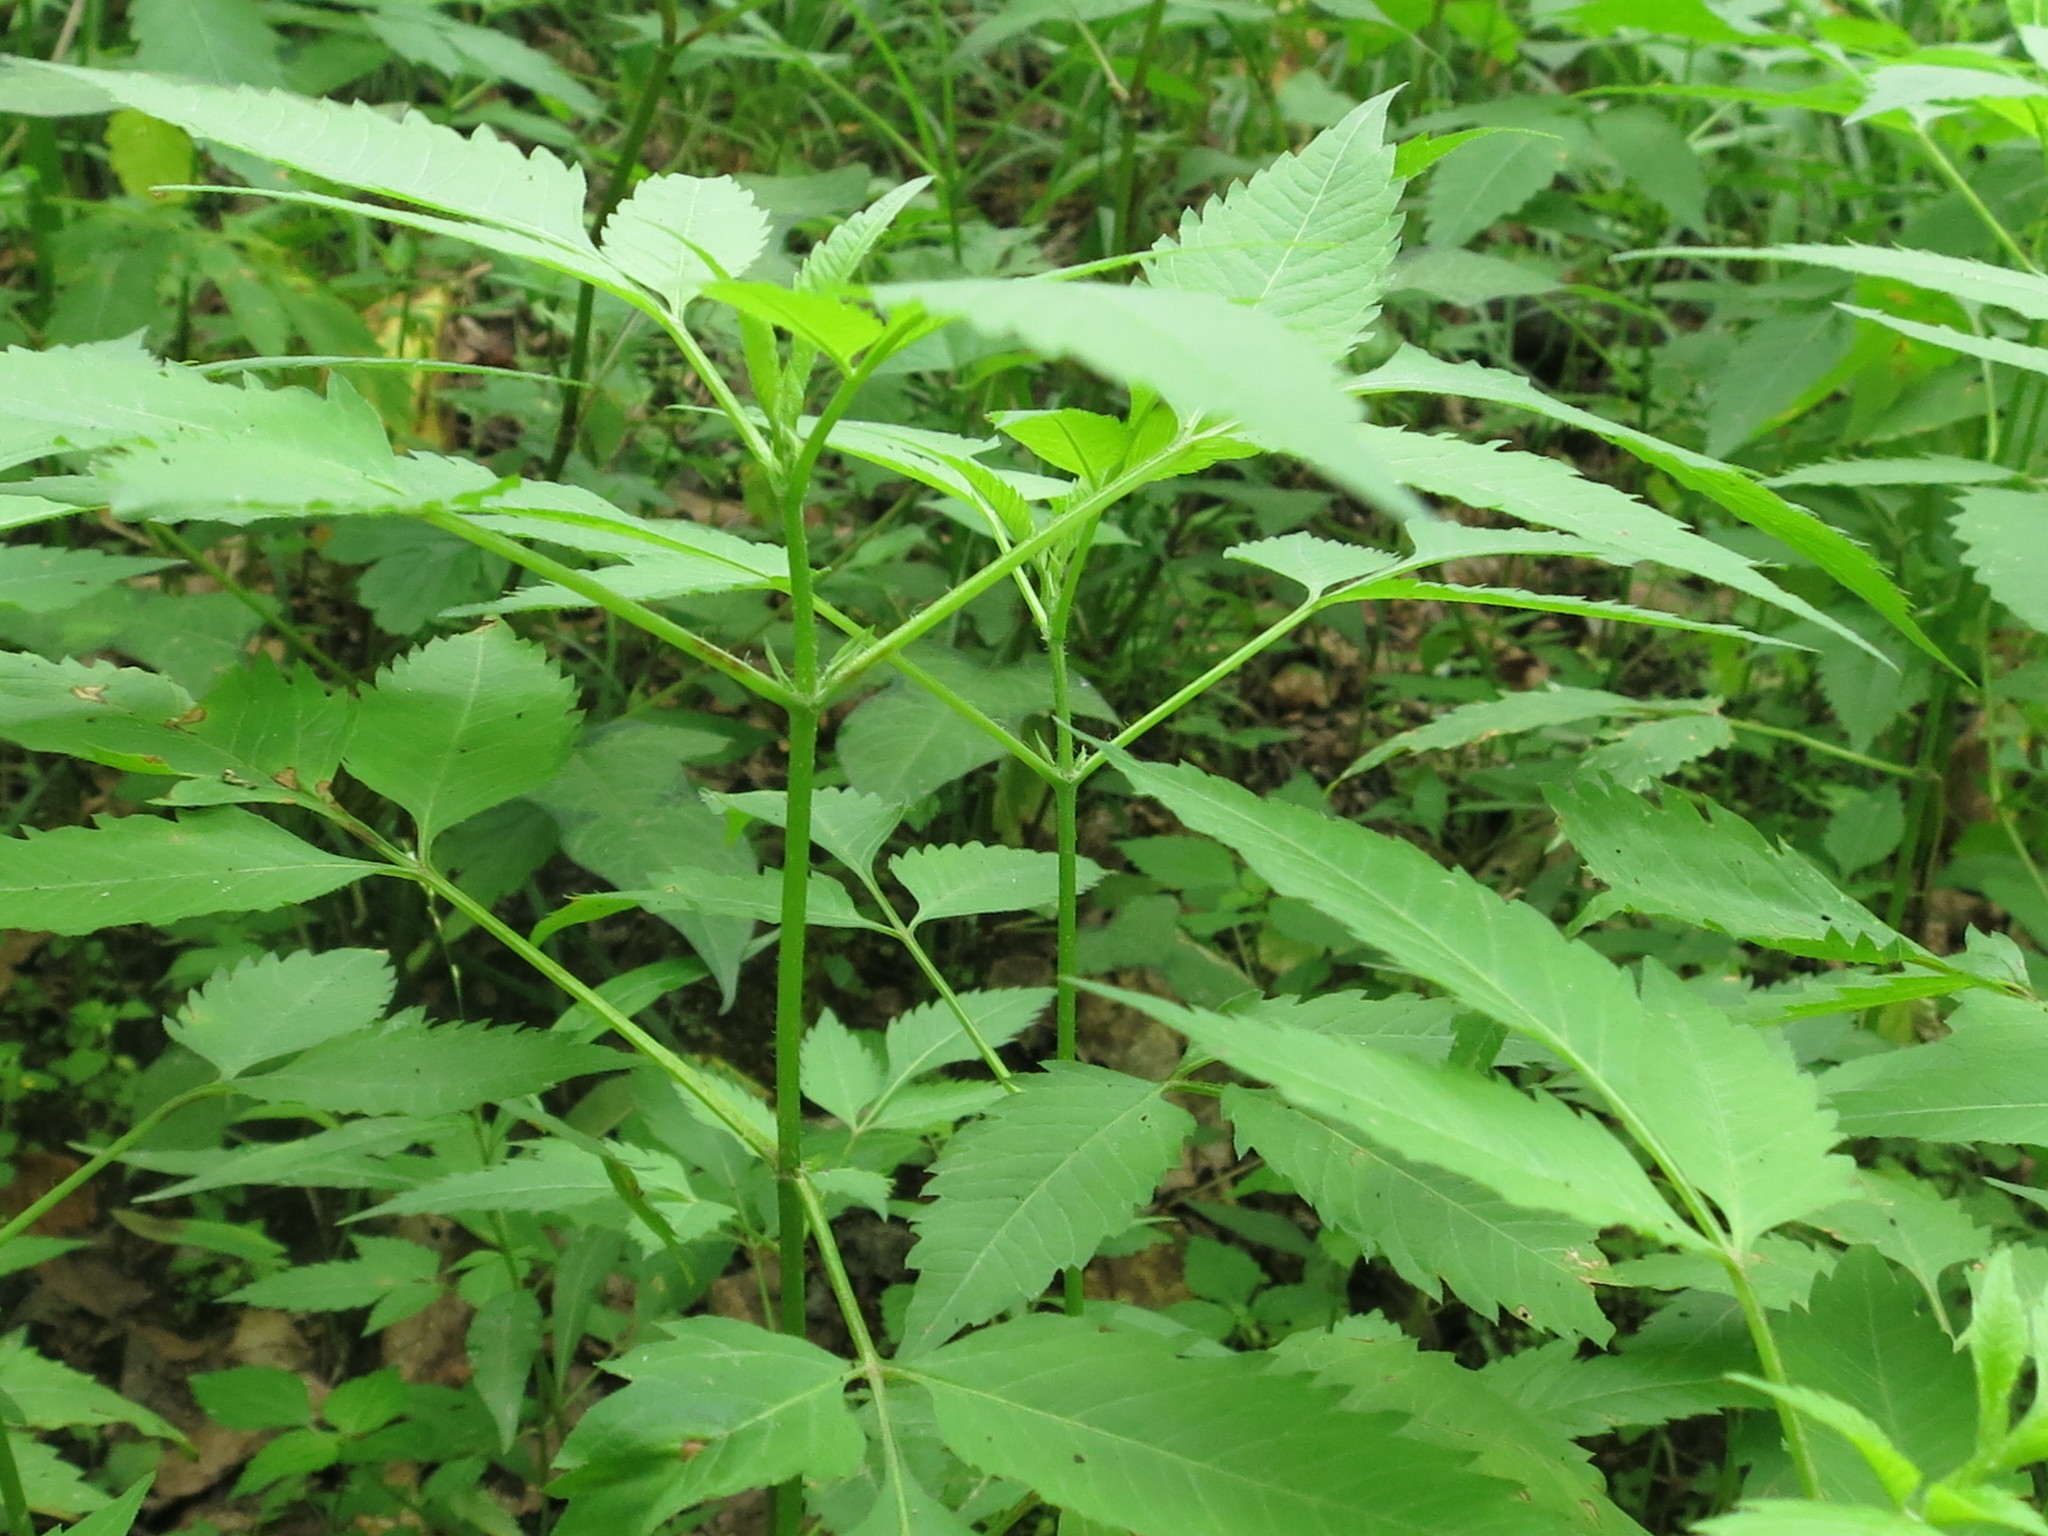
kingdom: Plantae
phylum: Tracheophyta
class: Magnoliopsida
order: Asterales
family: Asteraceae
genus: Bidens
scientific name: Bidens frondosa
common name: Beggarticks
